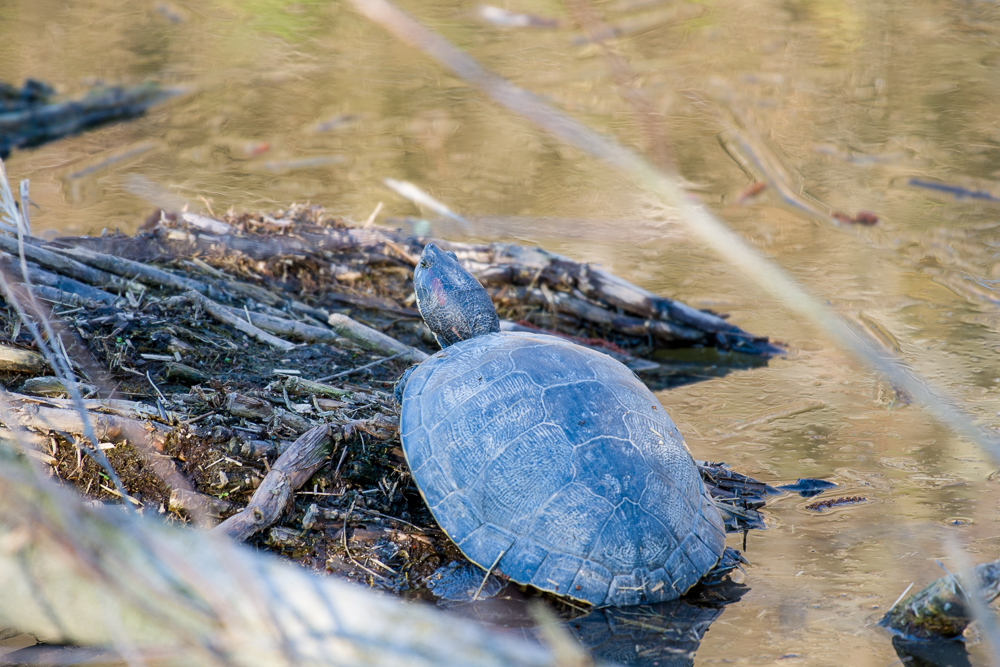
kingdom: Animalia
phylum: Chordata
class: Testudines
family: Emydidae
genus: Trachemys
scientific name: Trachemys scripta
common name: Slider
